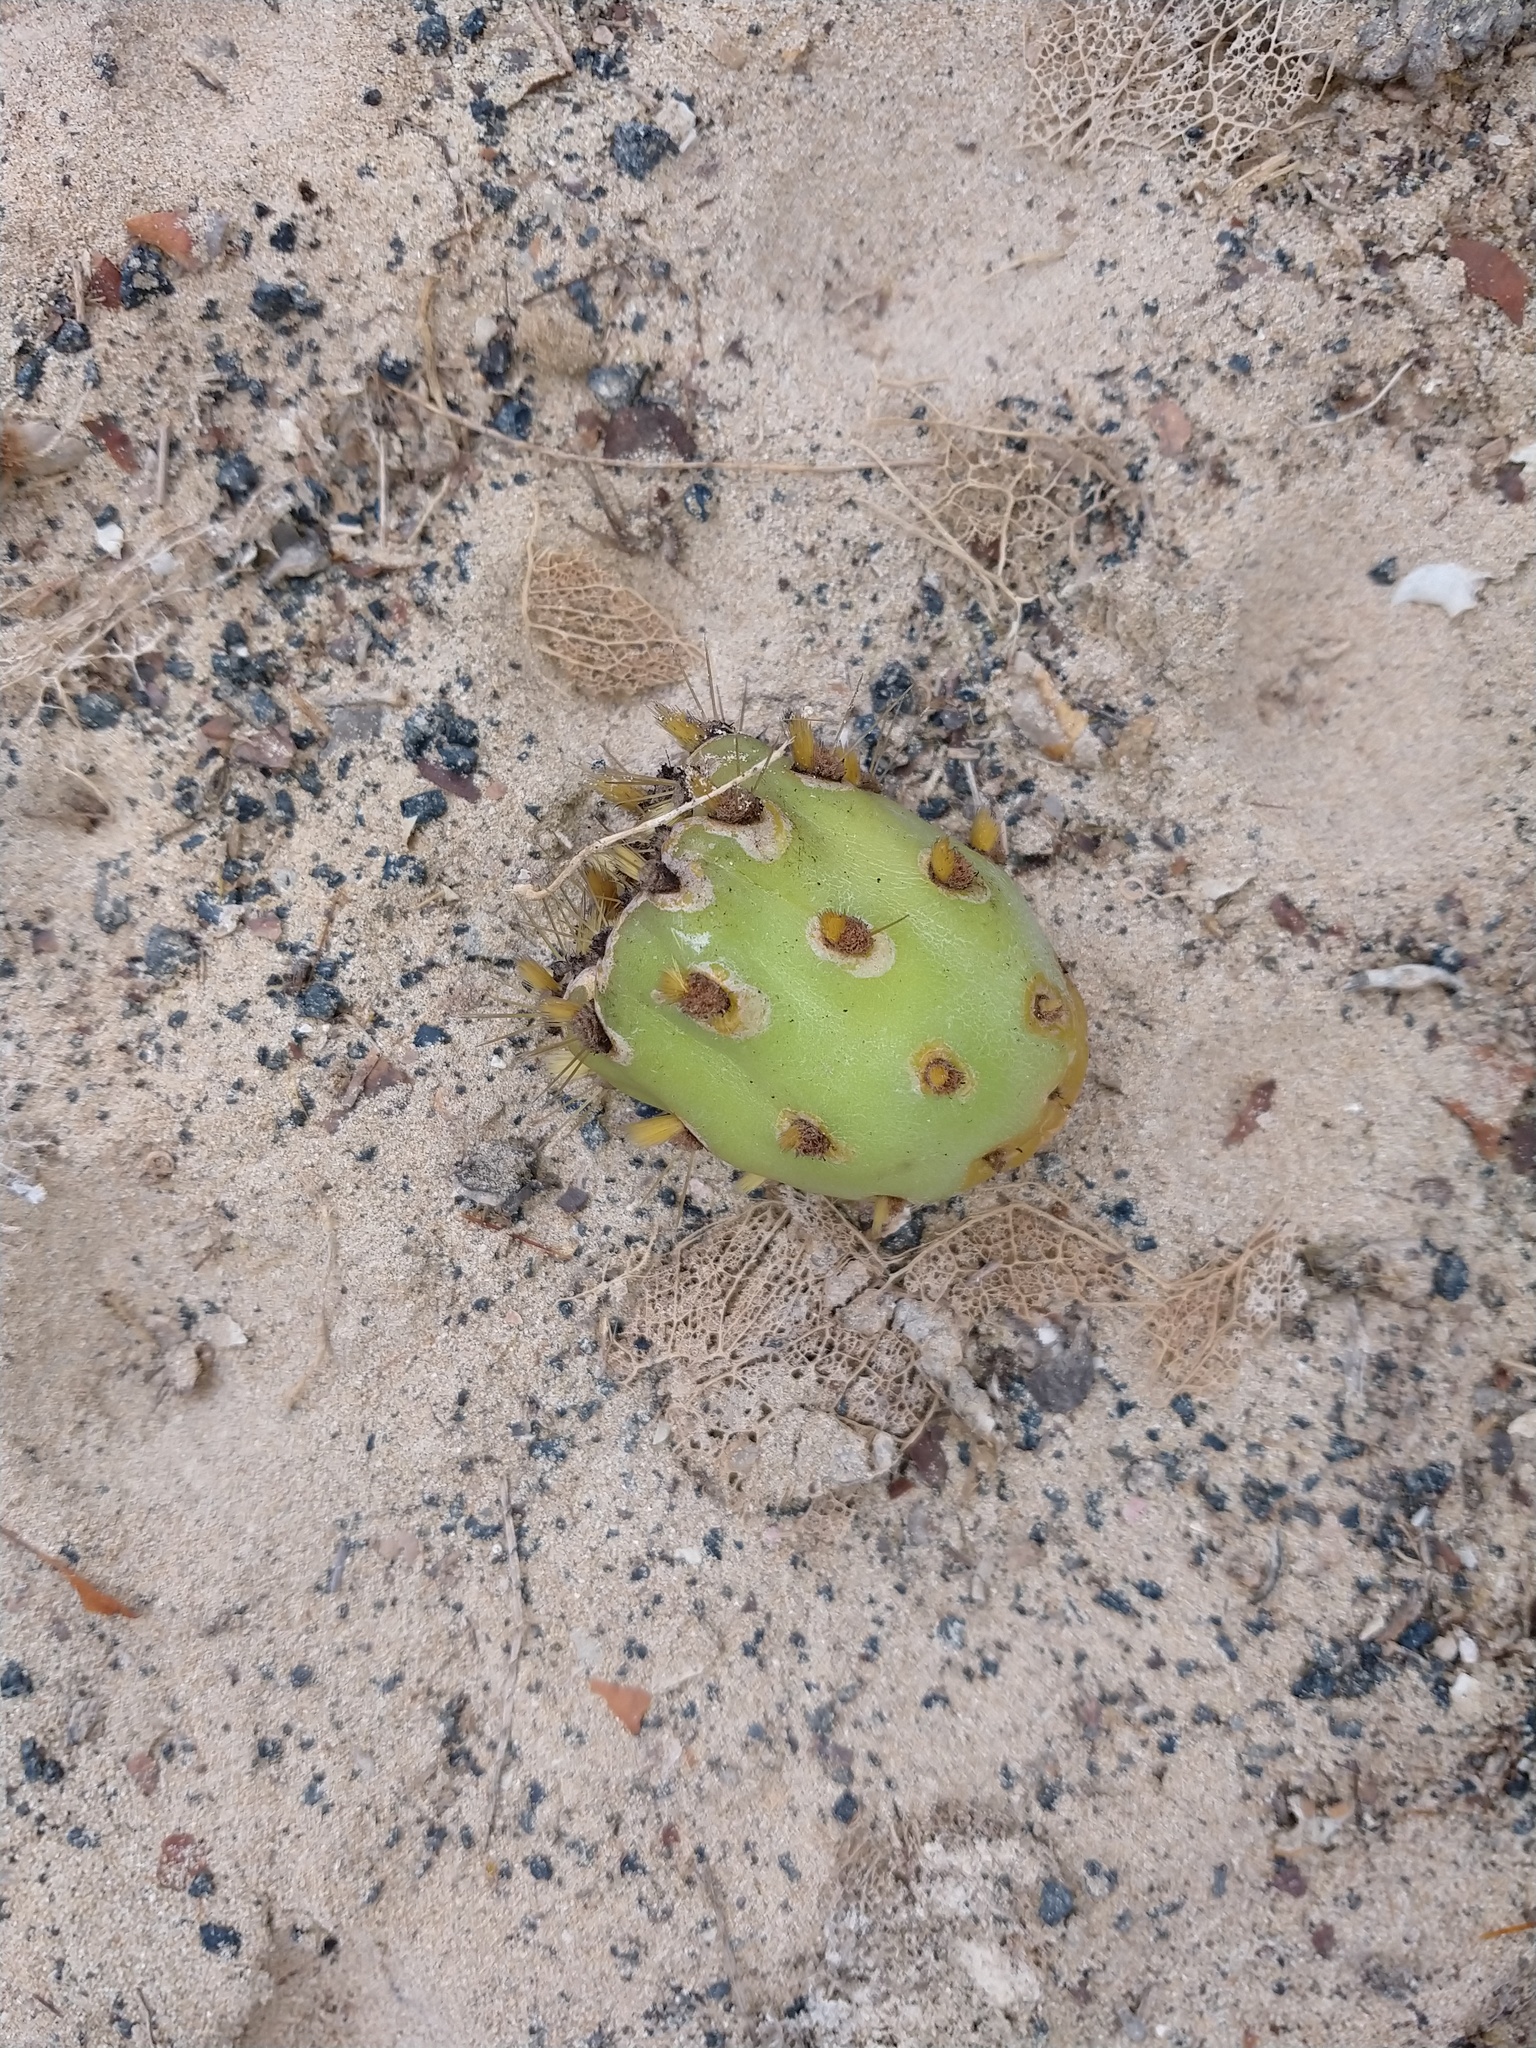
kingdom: Plantae
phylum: Tracheophyta
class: Magnoliopsida
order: Caryophyllales
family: Cactaceae
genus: Opuntia
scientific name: Opuntia galapageia
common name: Galápagos prickly pear
